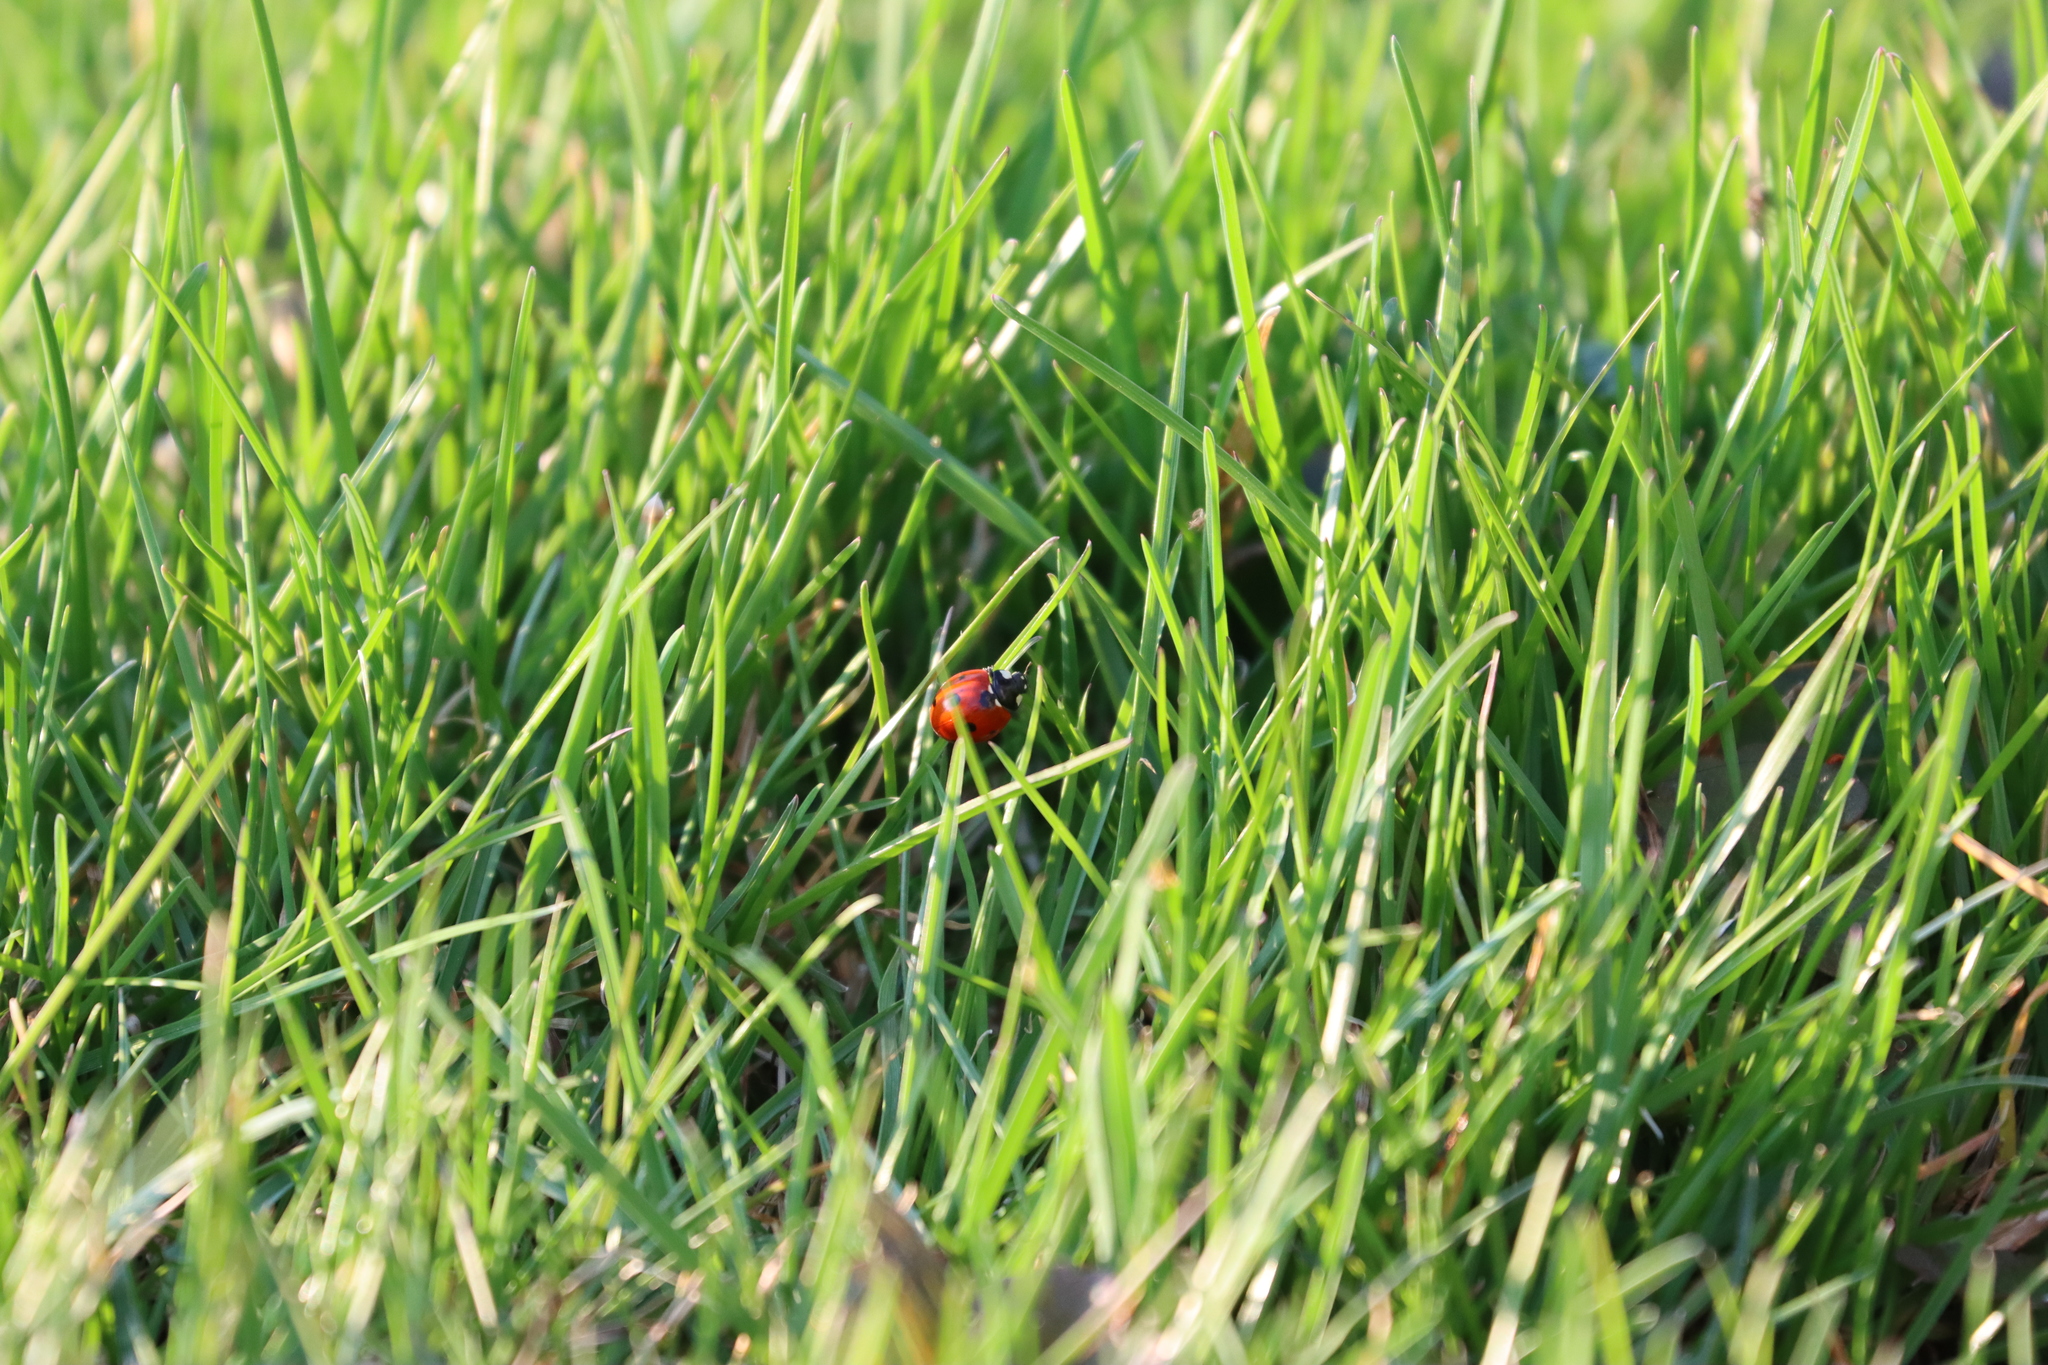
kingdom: Animalia
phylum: Arthropoda
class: Insecta
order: Coleoptera
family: Coccinellidae
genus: Coccinella
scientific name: Coccinella septempunctata
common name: Sevenspotted lady beetle
